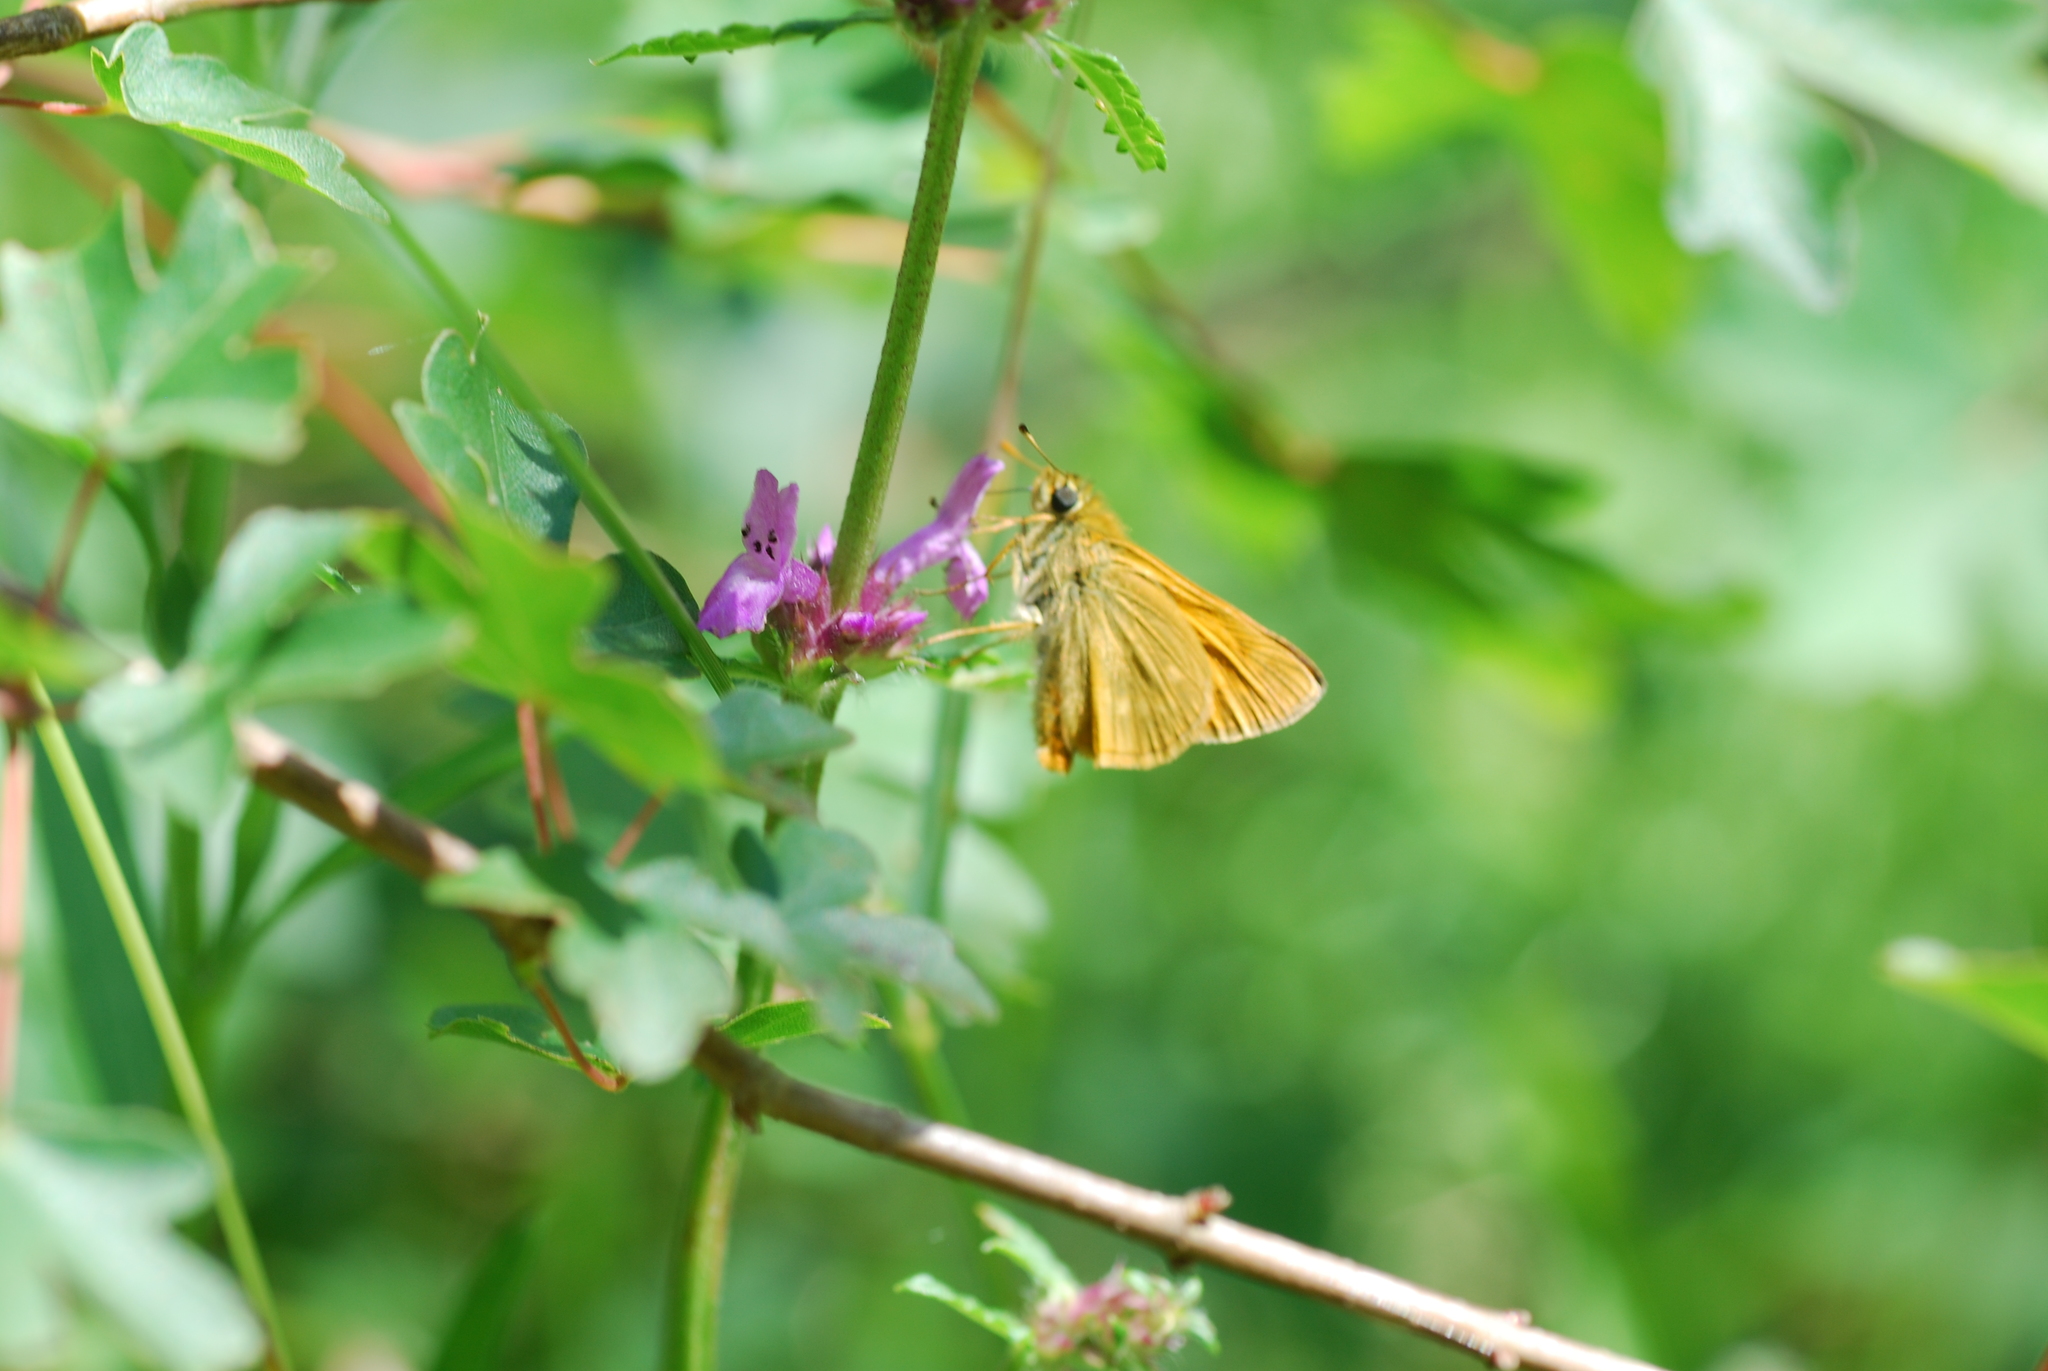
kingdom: Animalia
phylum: Arthropoda
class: Insecta
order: Lepidoptera
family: Hesperiidae
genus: Ochlodes
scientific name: Ochlodes venata
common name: Large skipper
